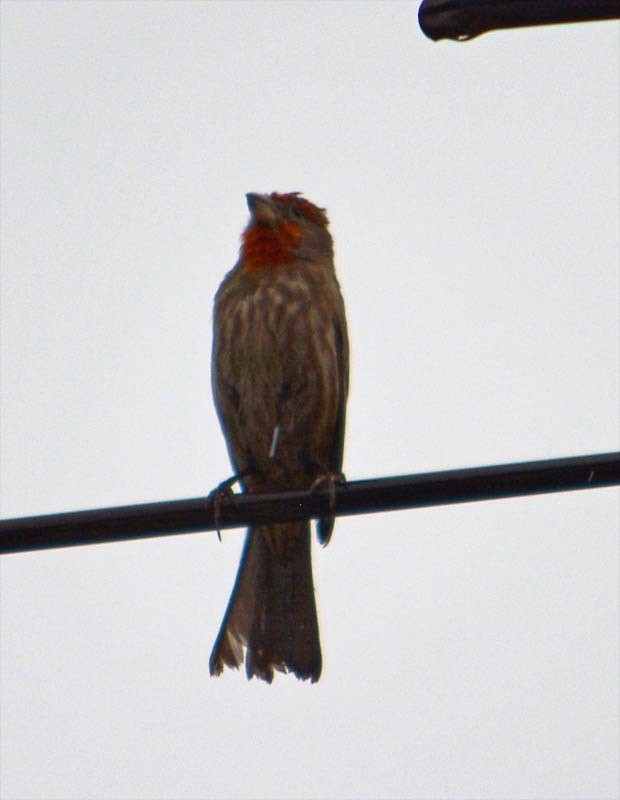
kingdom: Animalia
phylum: Chordata
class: Aves
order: Passeriformes
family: Fringillidae
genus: Haemorhous
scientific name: Haemorhous mexicanus
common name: House finch
